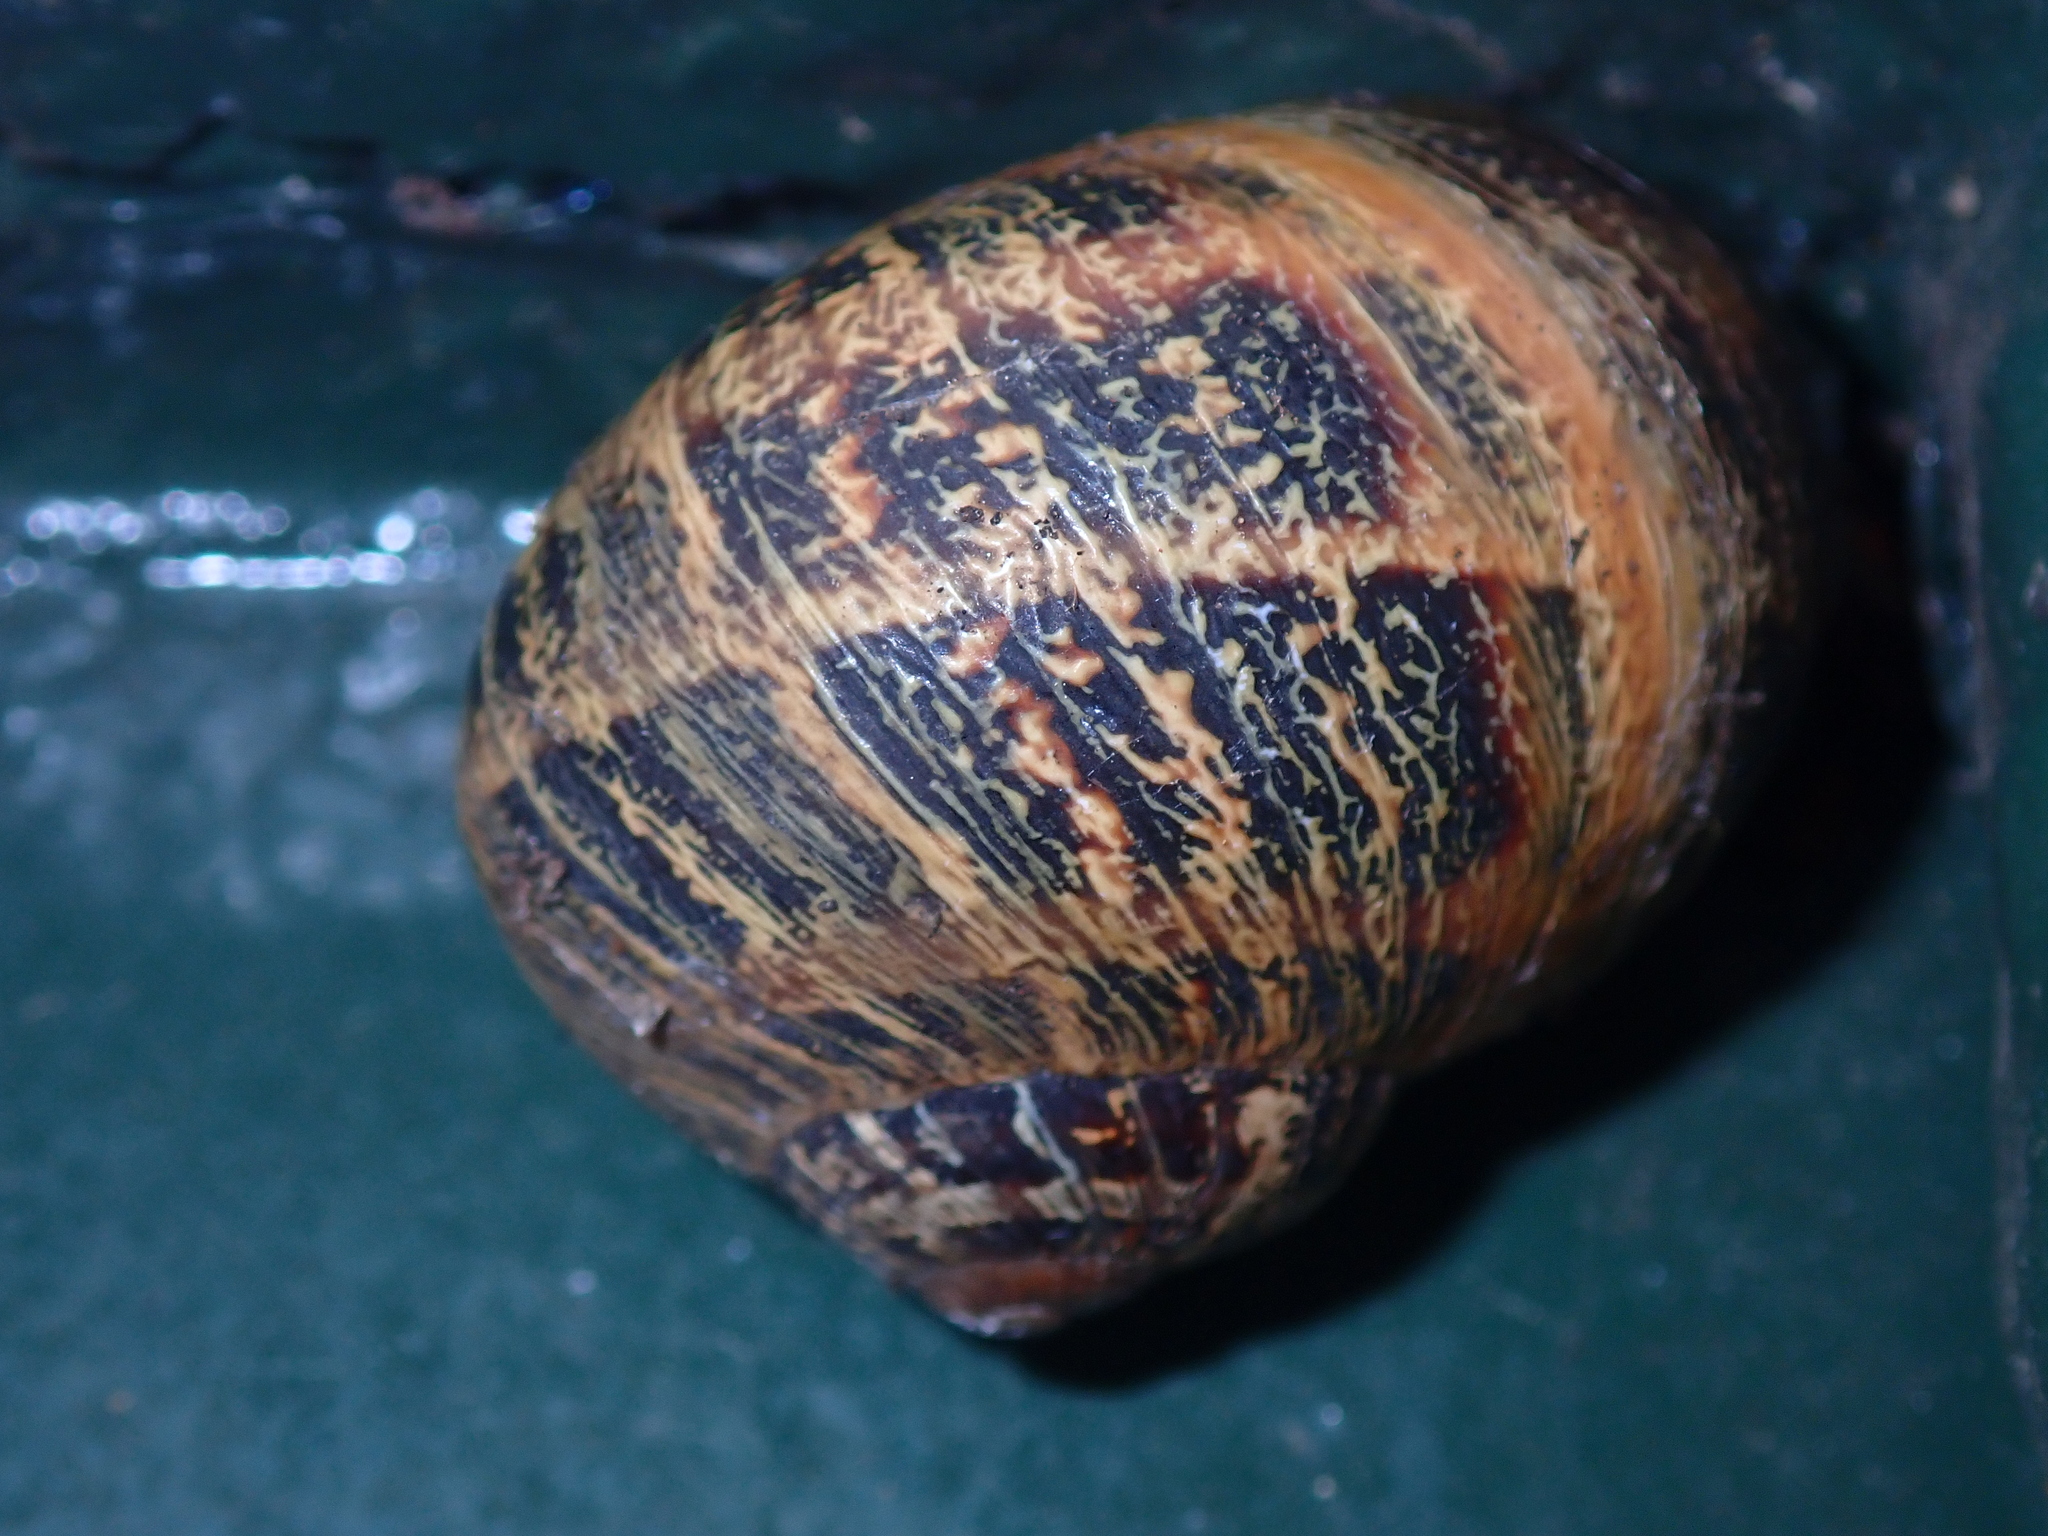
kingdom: Animalia
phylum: Mollusca
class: Gastropoda
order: Stylommatophora
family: Helicidae
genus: Cornu
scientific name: Cornu aspersum
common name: Brown garden snail
